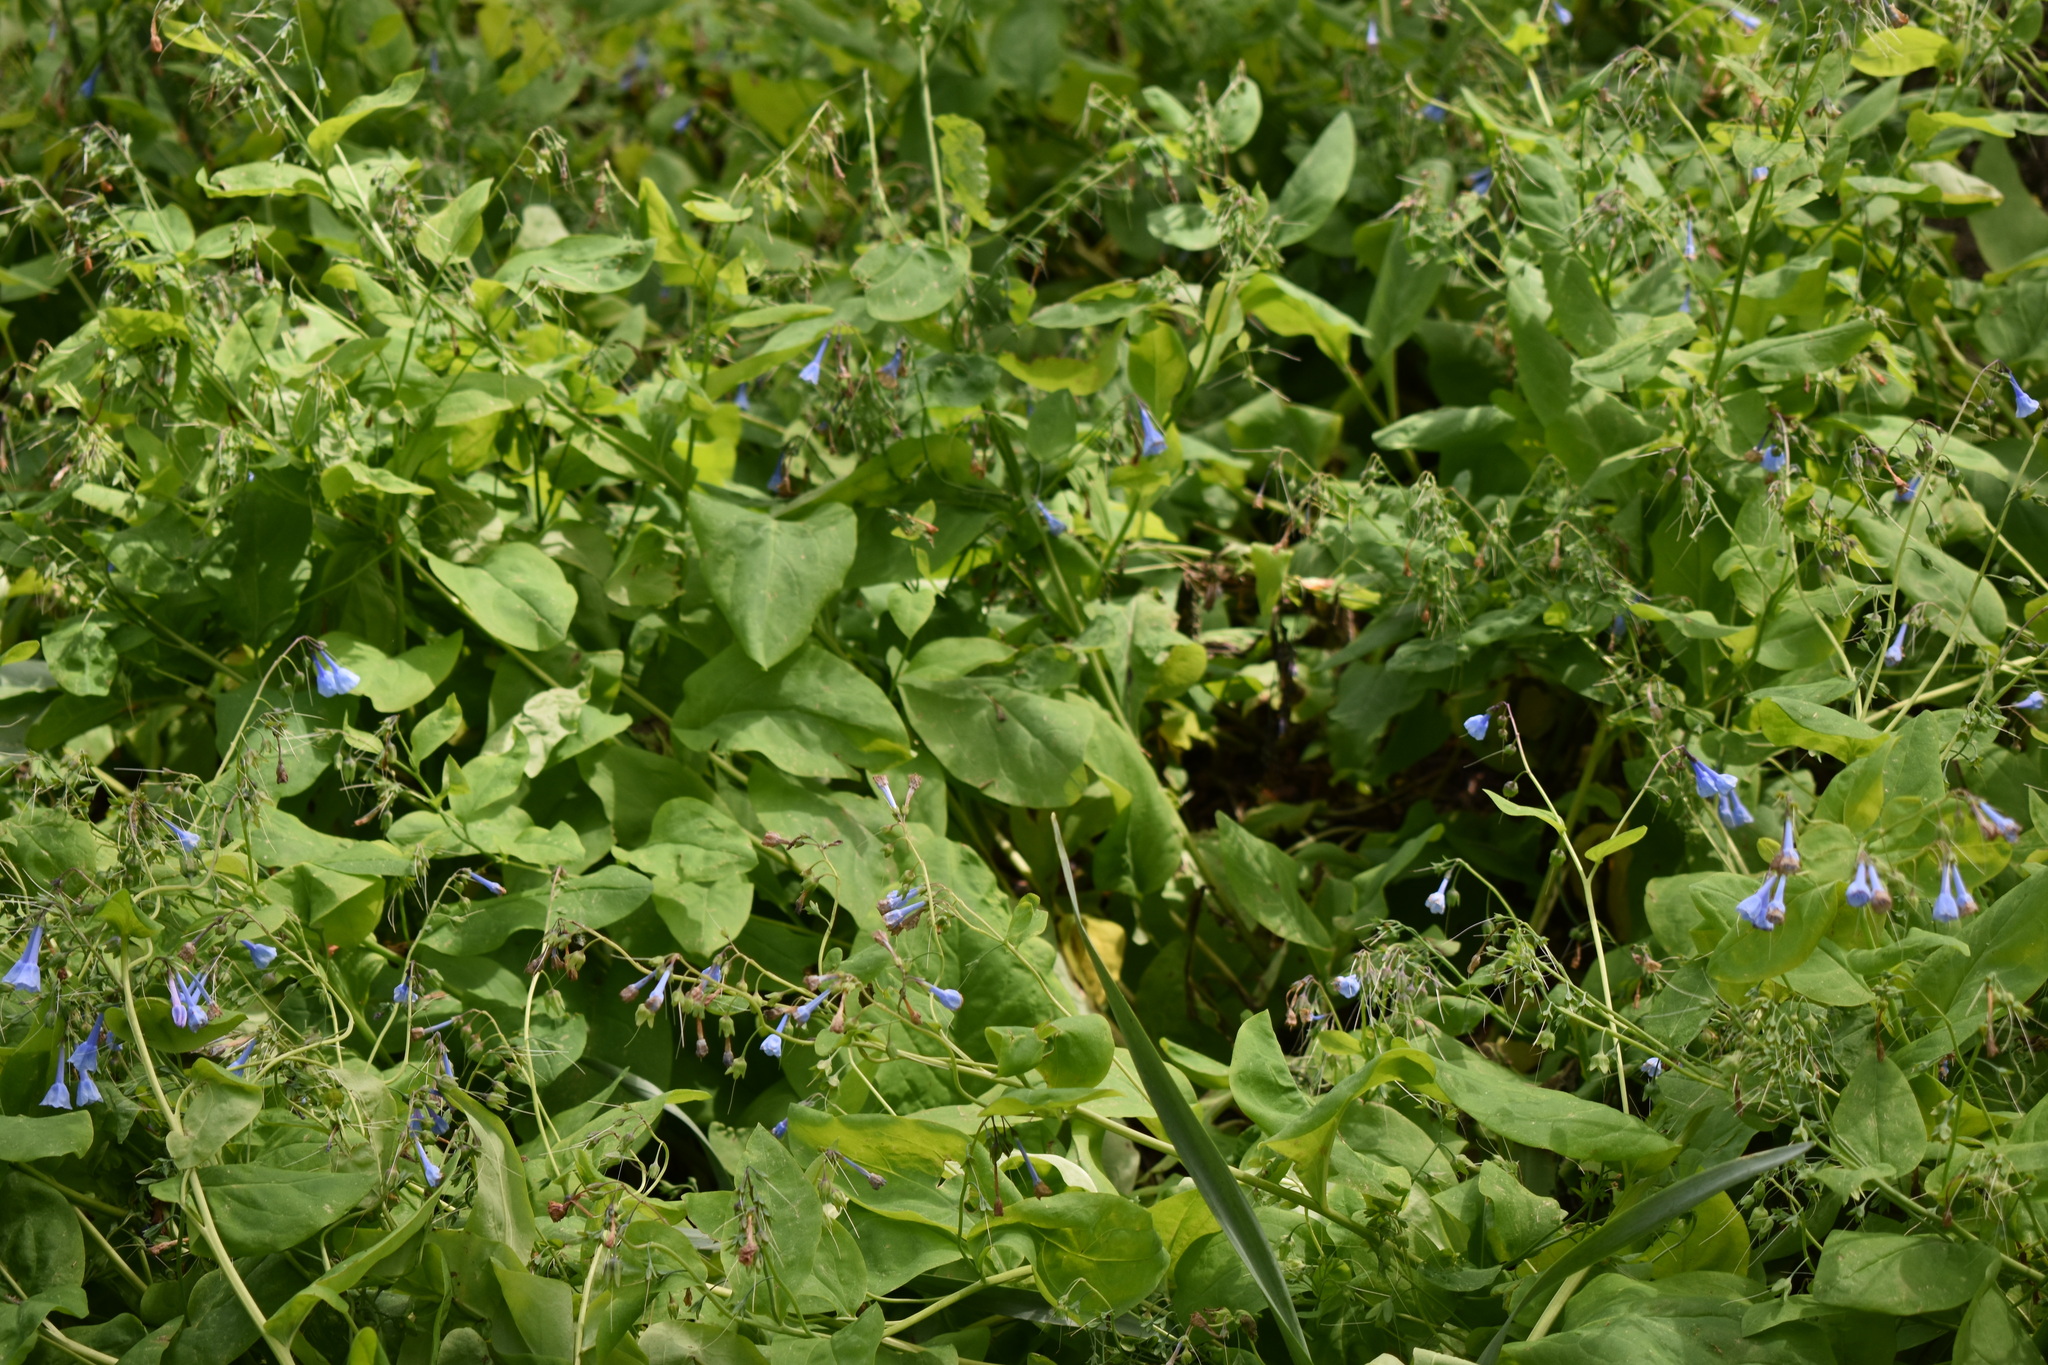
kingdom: Plantae
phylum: Tracheophyta
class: Magnoliopsida
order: Boraginales
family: Boraginaceae
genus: Mertensia
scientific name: Mertensia virginica
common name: Virginia bluebells
